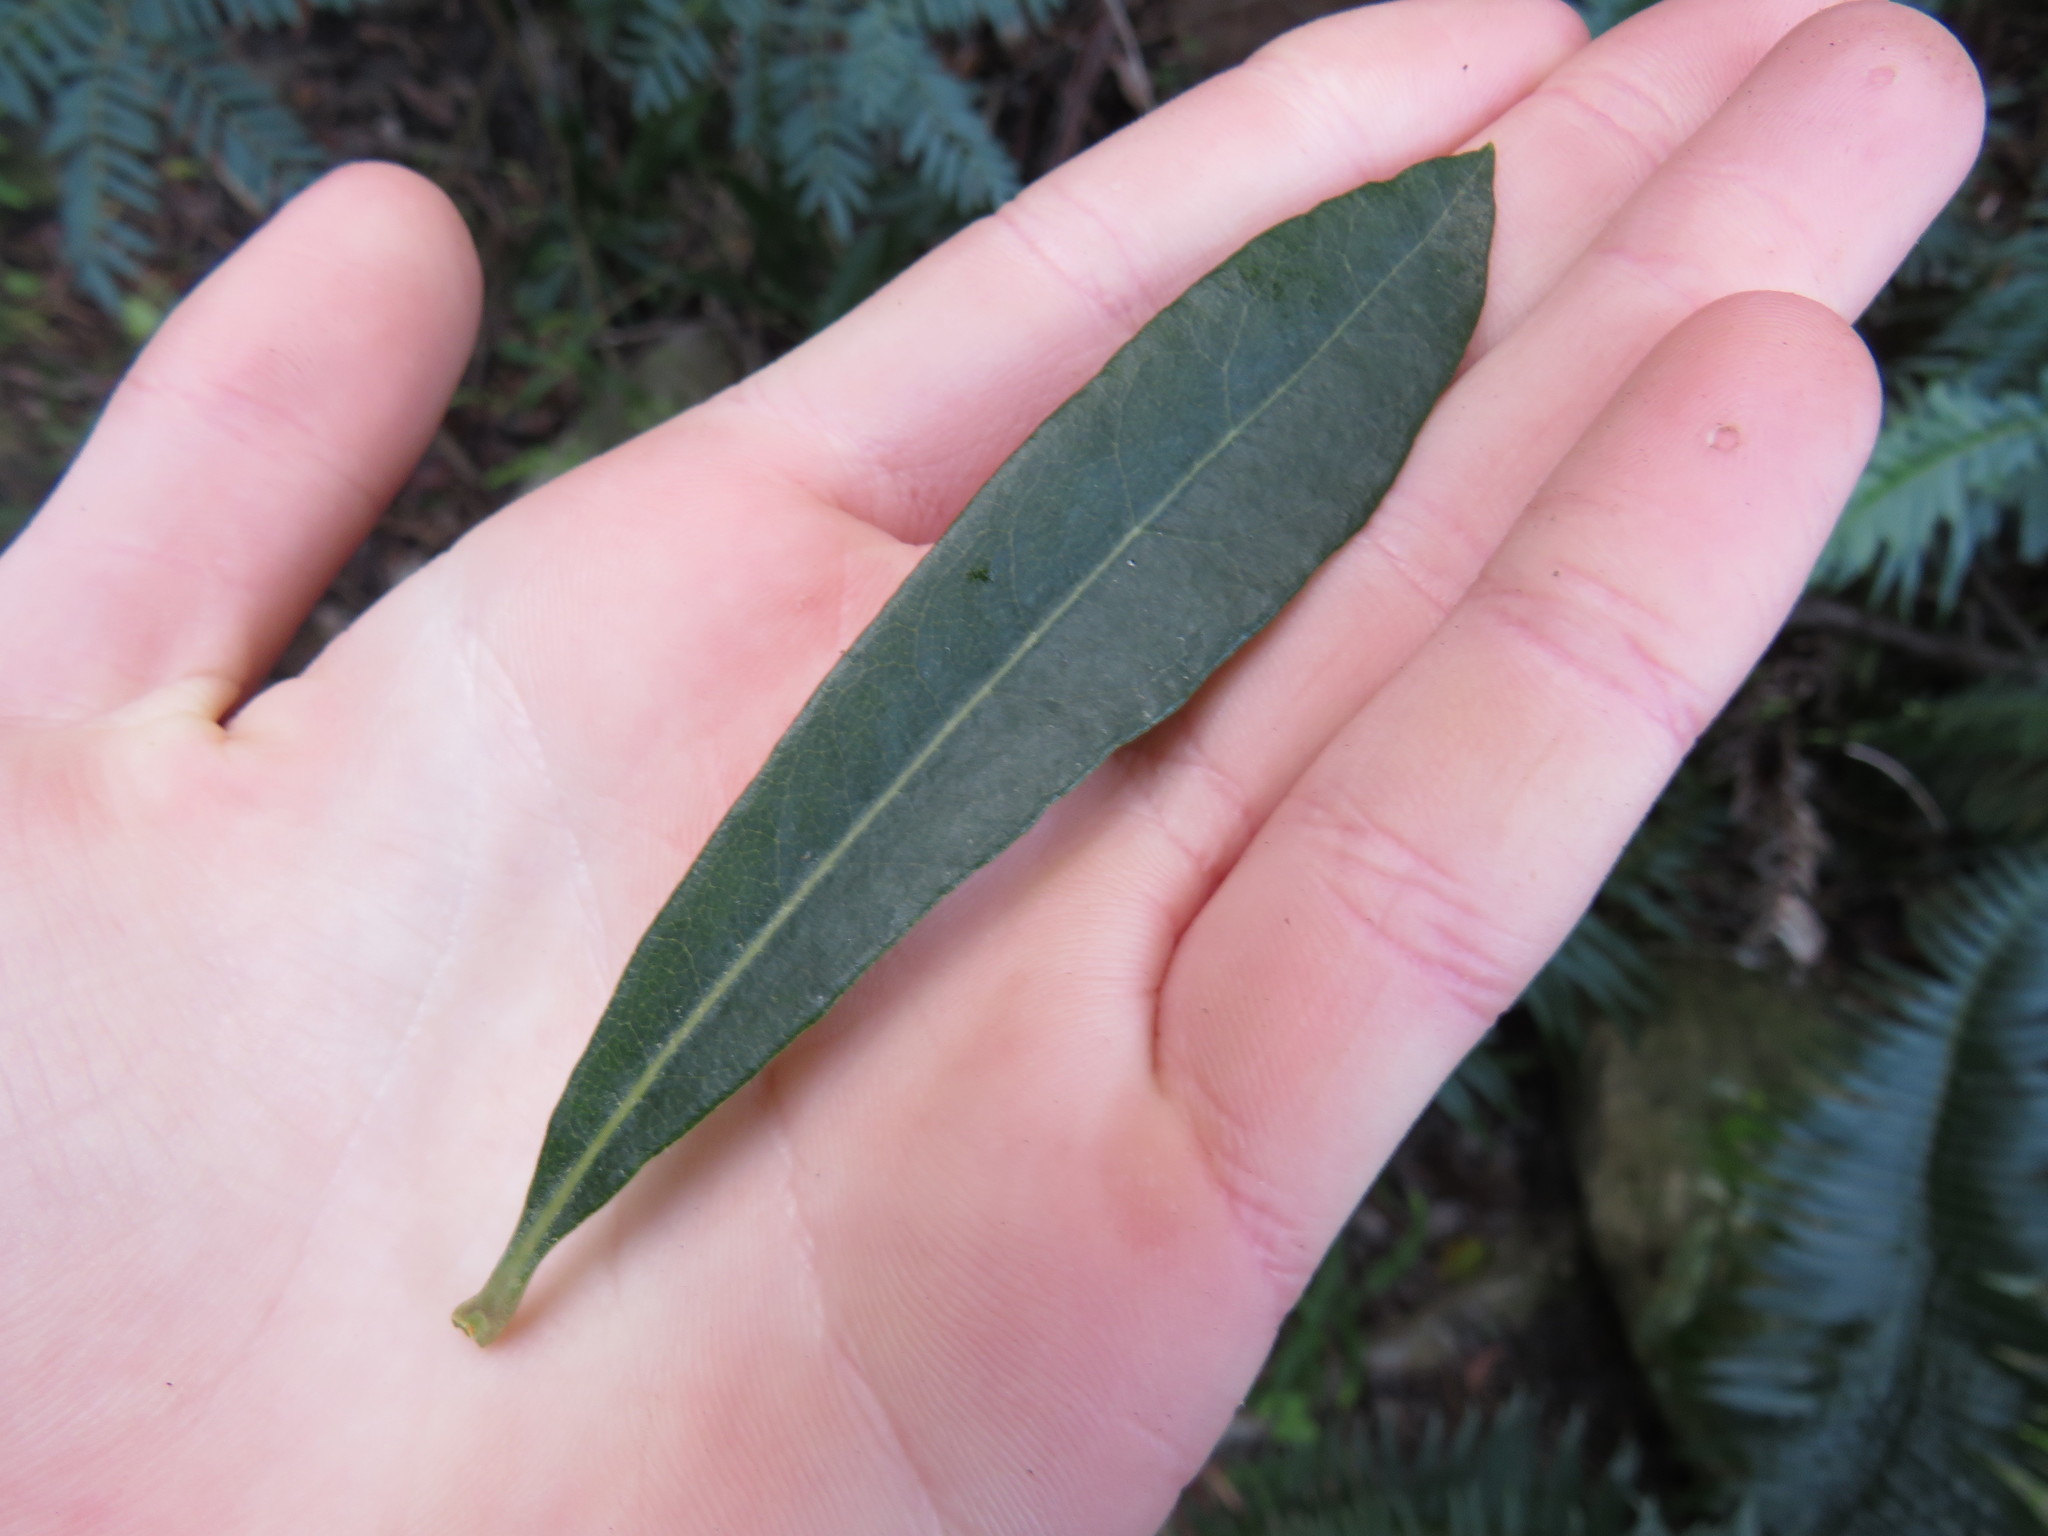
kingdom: Plantae
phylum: Tracheophyta
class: Magnoliopsida
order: Asterales
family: Asteraceae
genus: Brachylaena
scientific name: Brachylaena neriifolia
